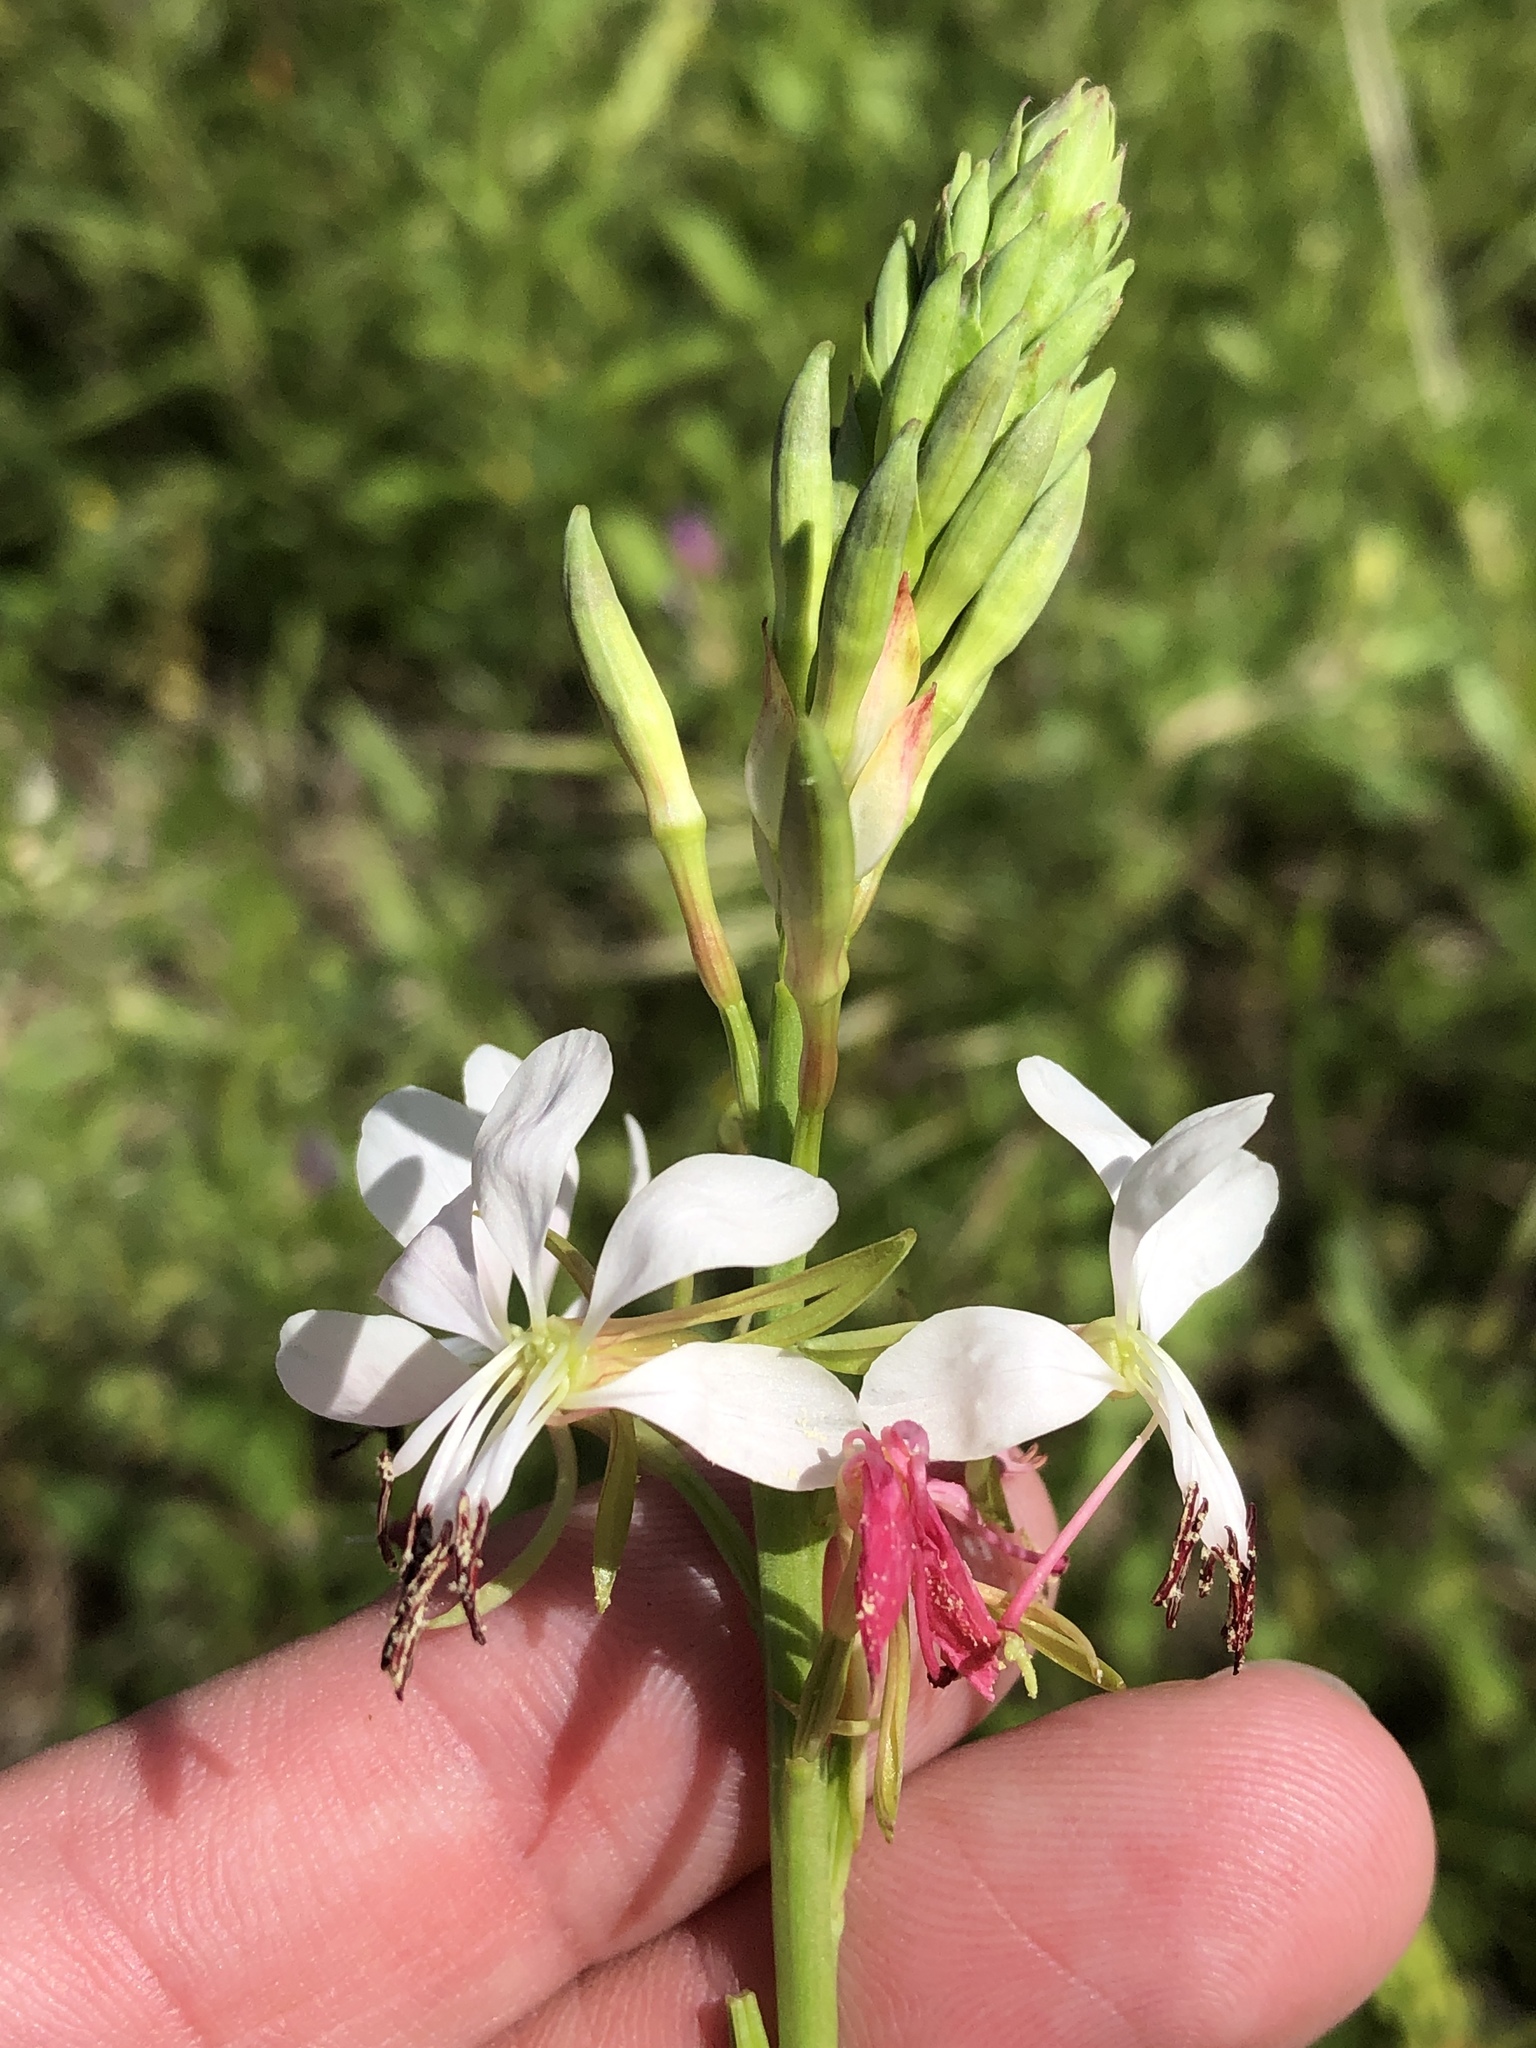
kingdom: Plantae
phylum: Tracheophyta
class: Magnoliopsida
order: Myrtales
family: Onagraceae
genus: Oenothera
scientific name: Oenothera suffulta
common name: Kisses
